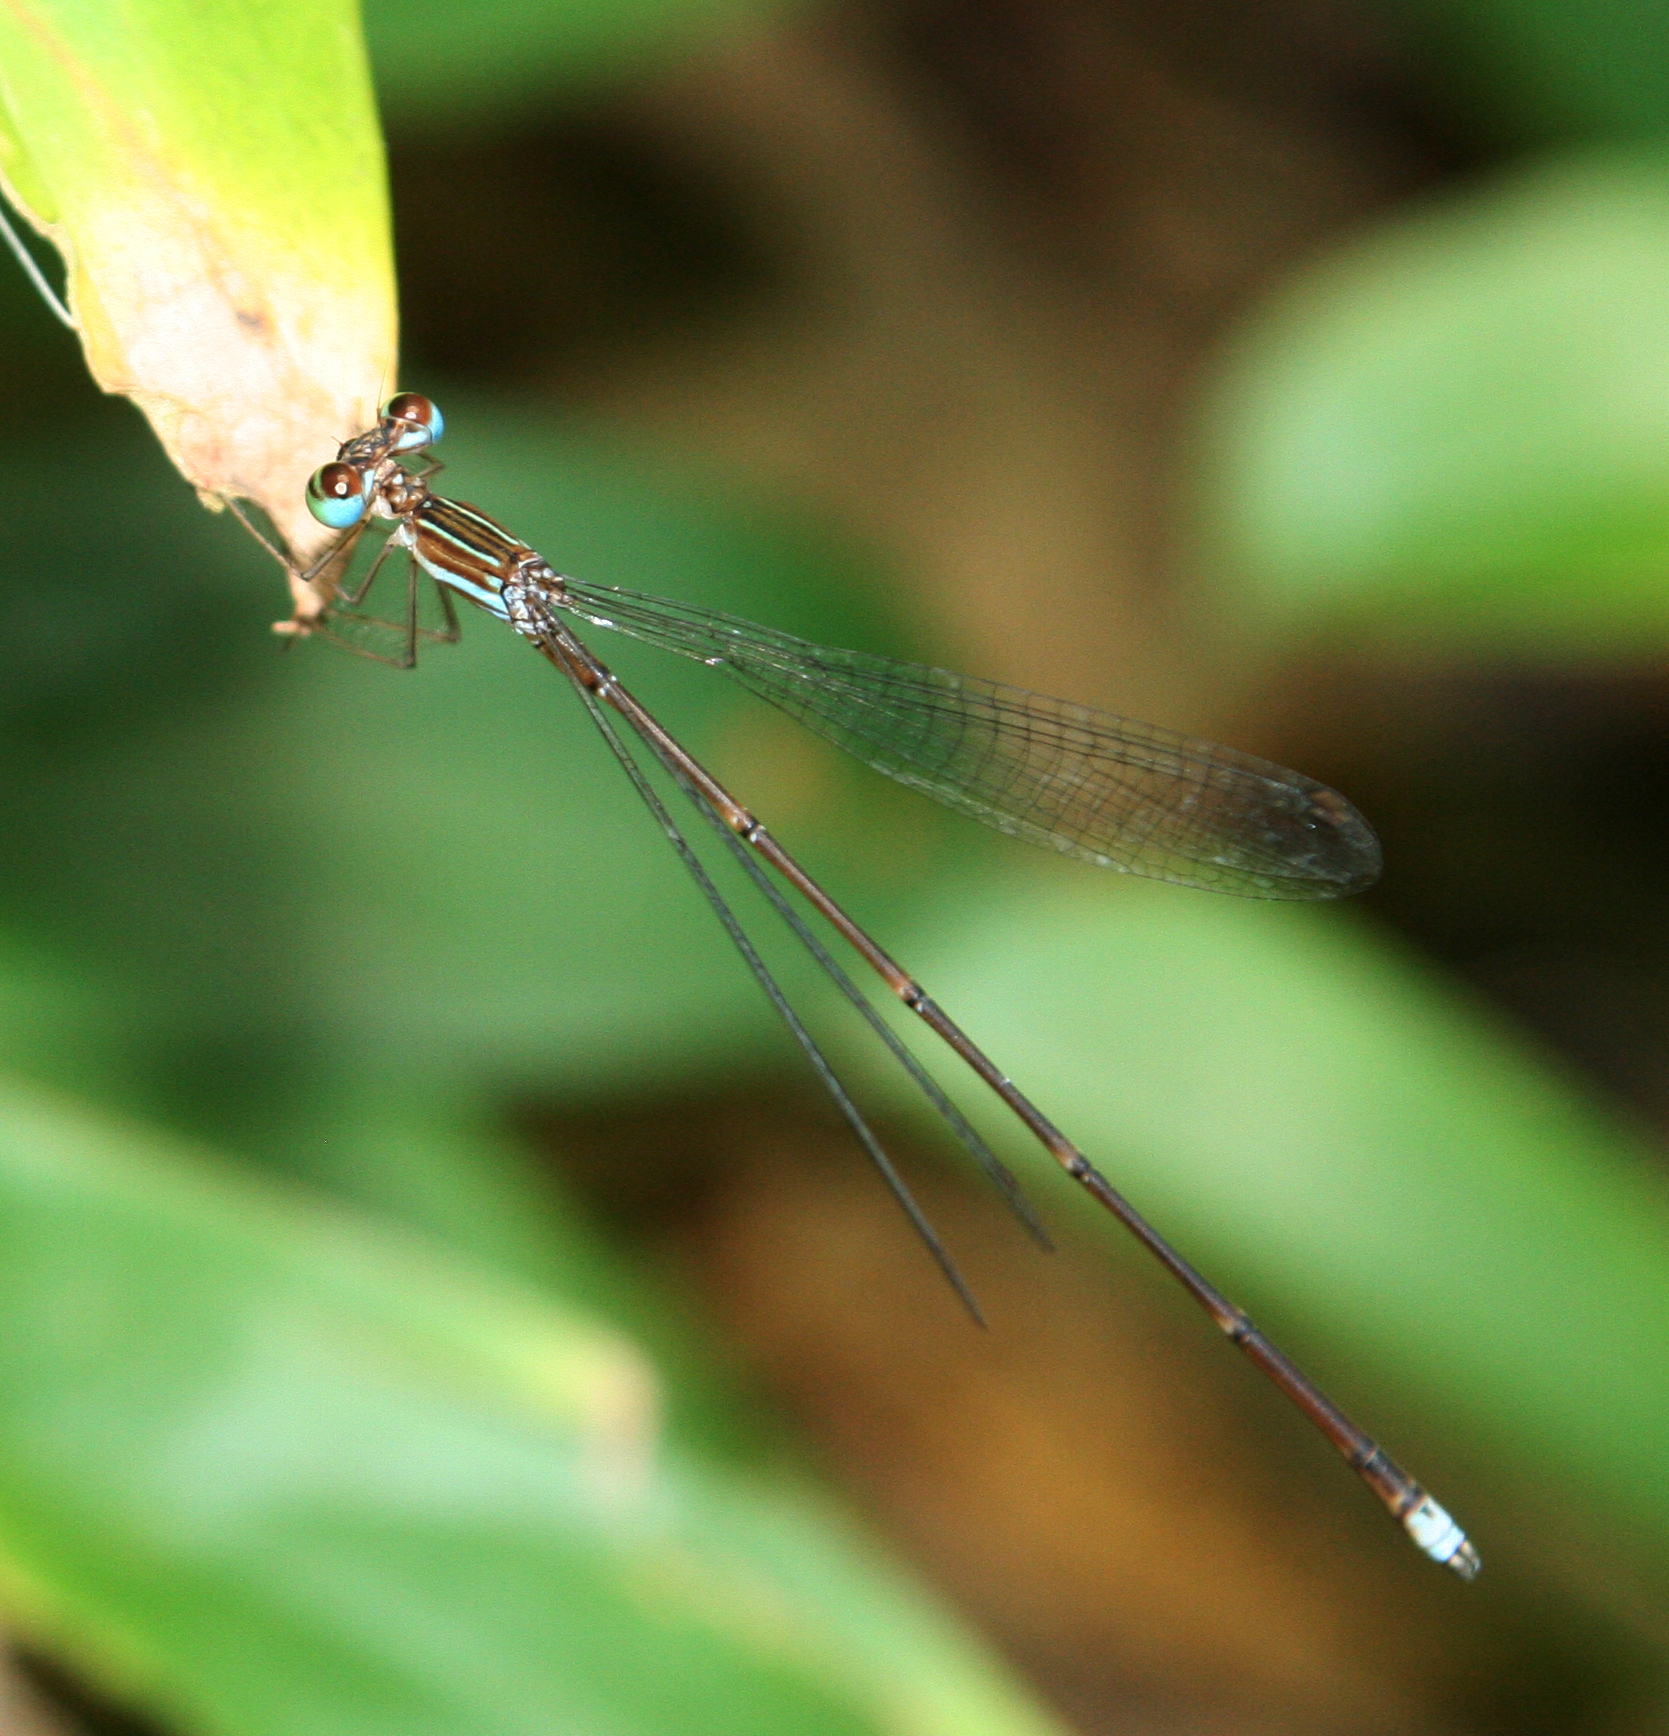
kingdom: Animalia
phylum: Arthropoda
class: Insecta
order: Odonata
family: Platycnemididae
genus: Coeliccia
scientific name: Coeliccia kazukoae
